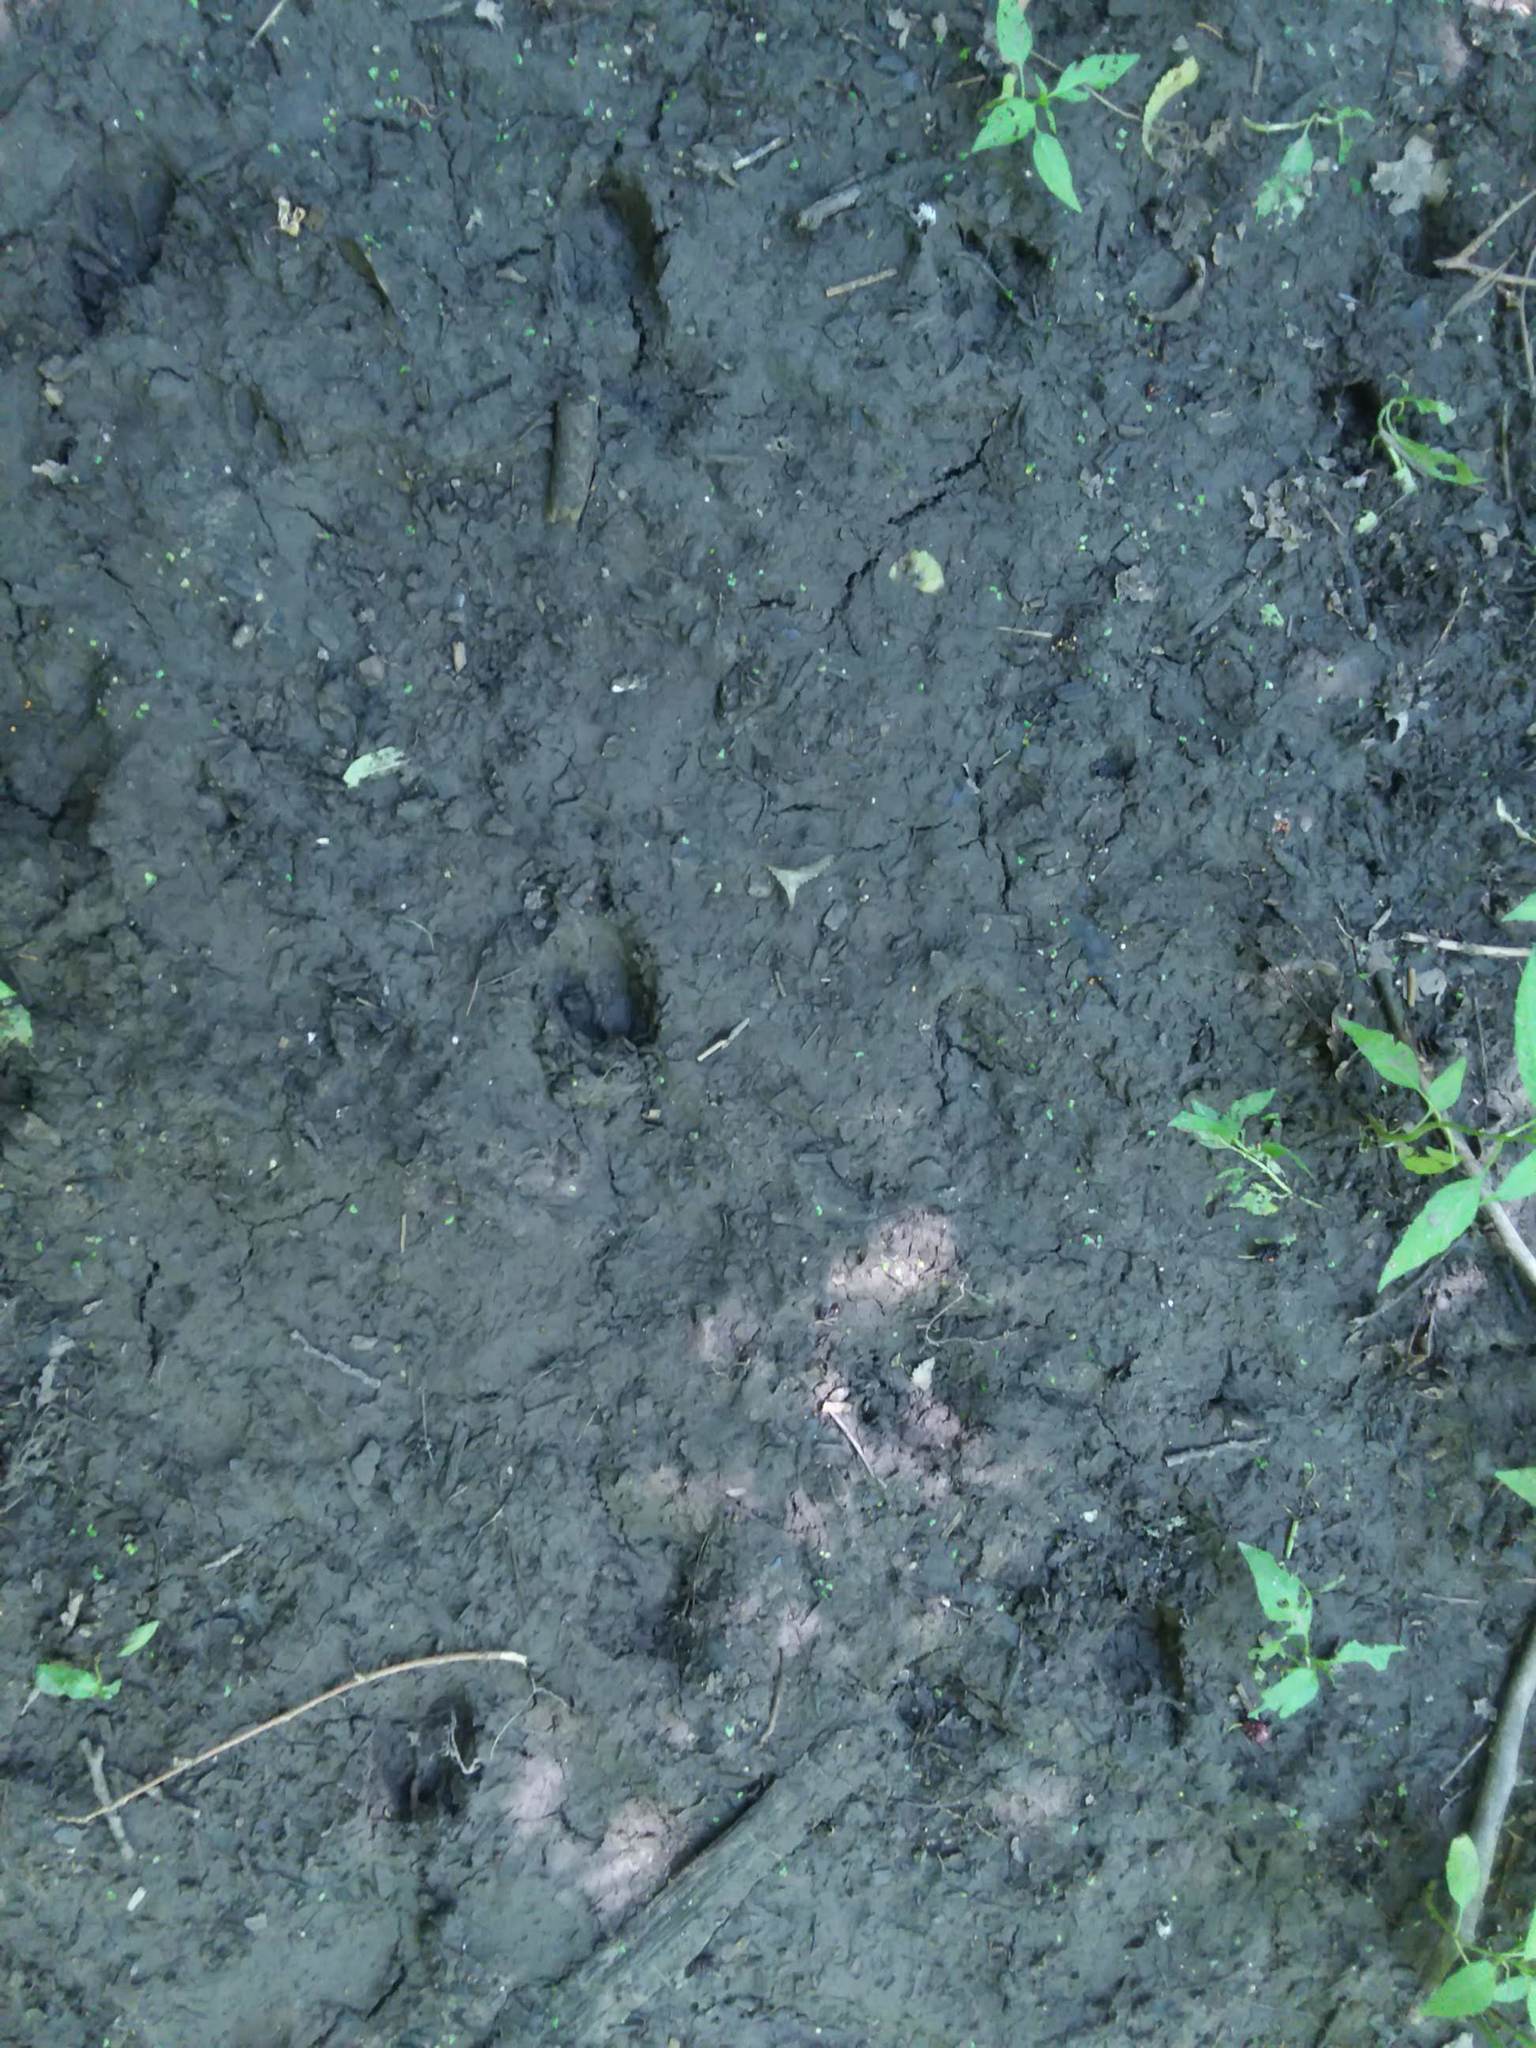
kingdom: Animalia
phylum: Chordata
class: Mammalia
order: Artiodactyla
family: Cervidae
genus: Odocoileus
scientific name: Odocoileus virginianus
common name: White-tailed deer
